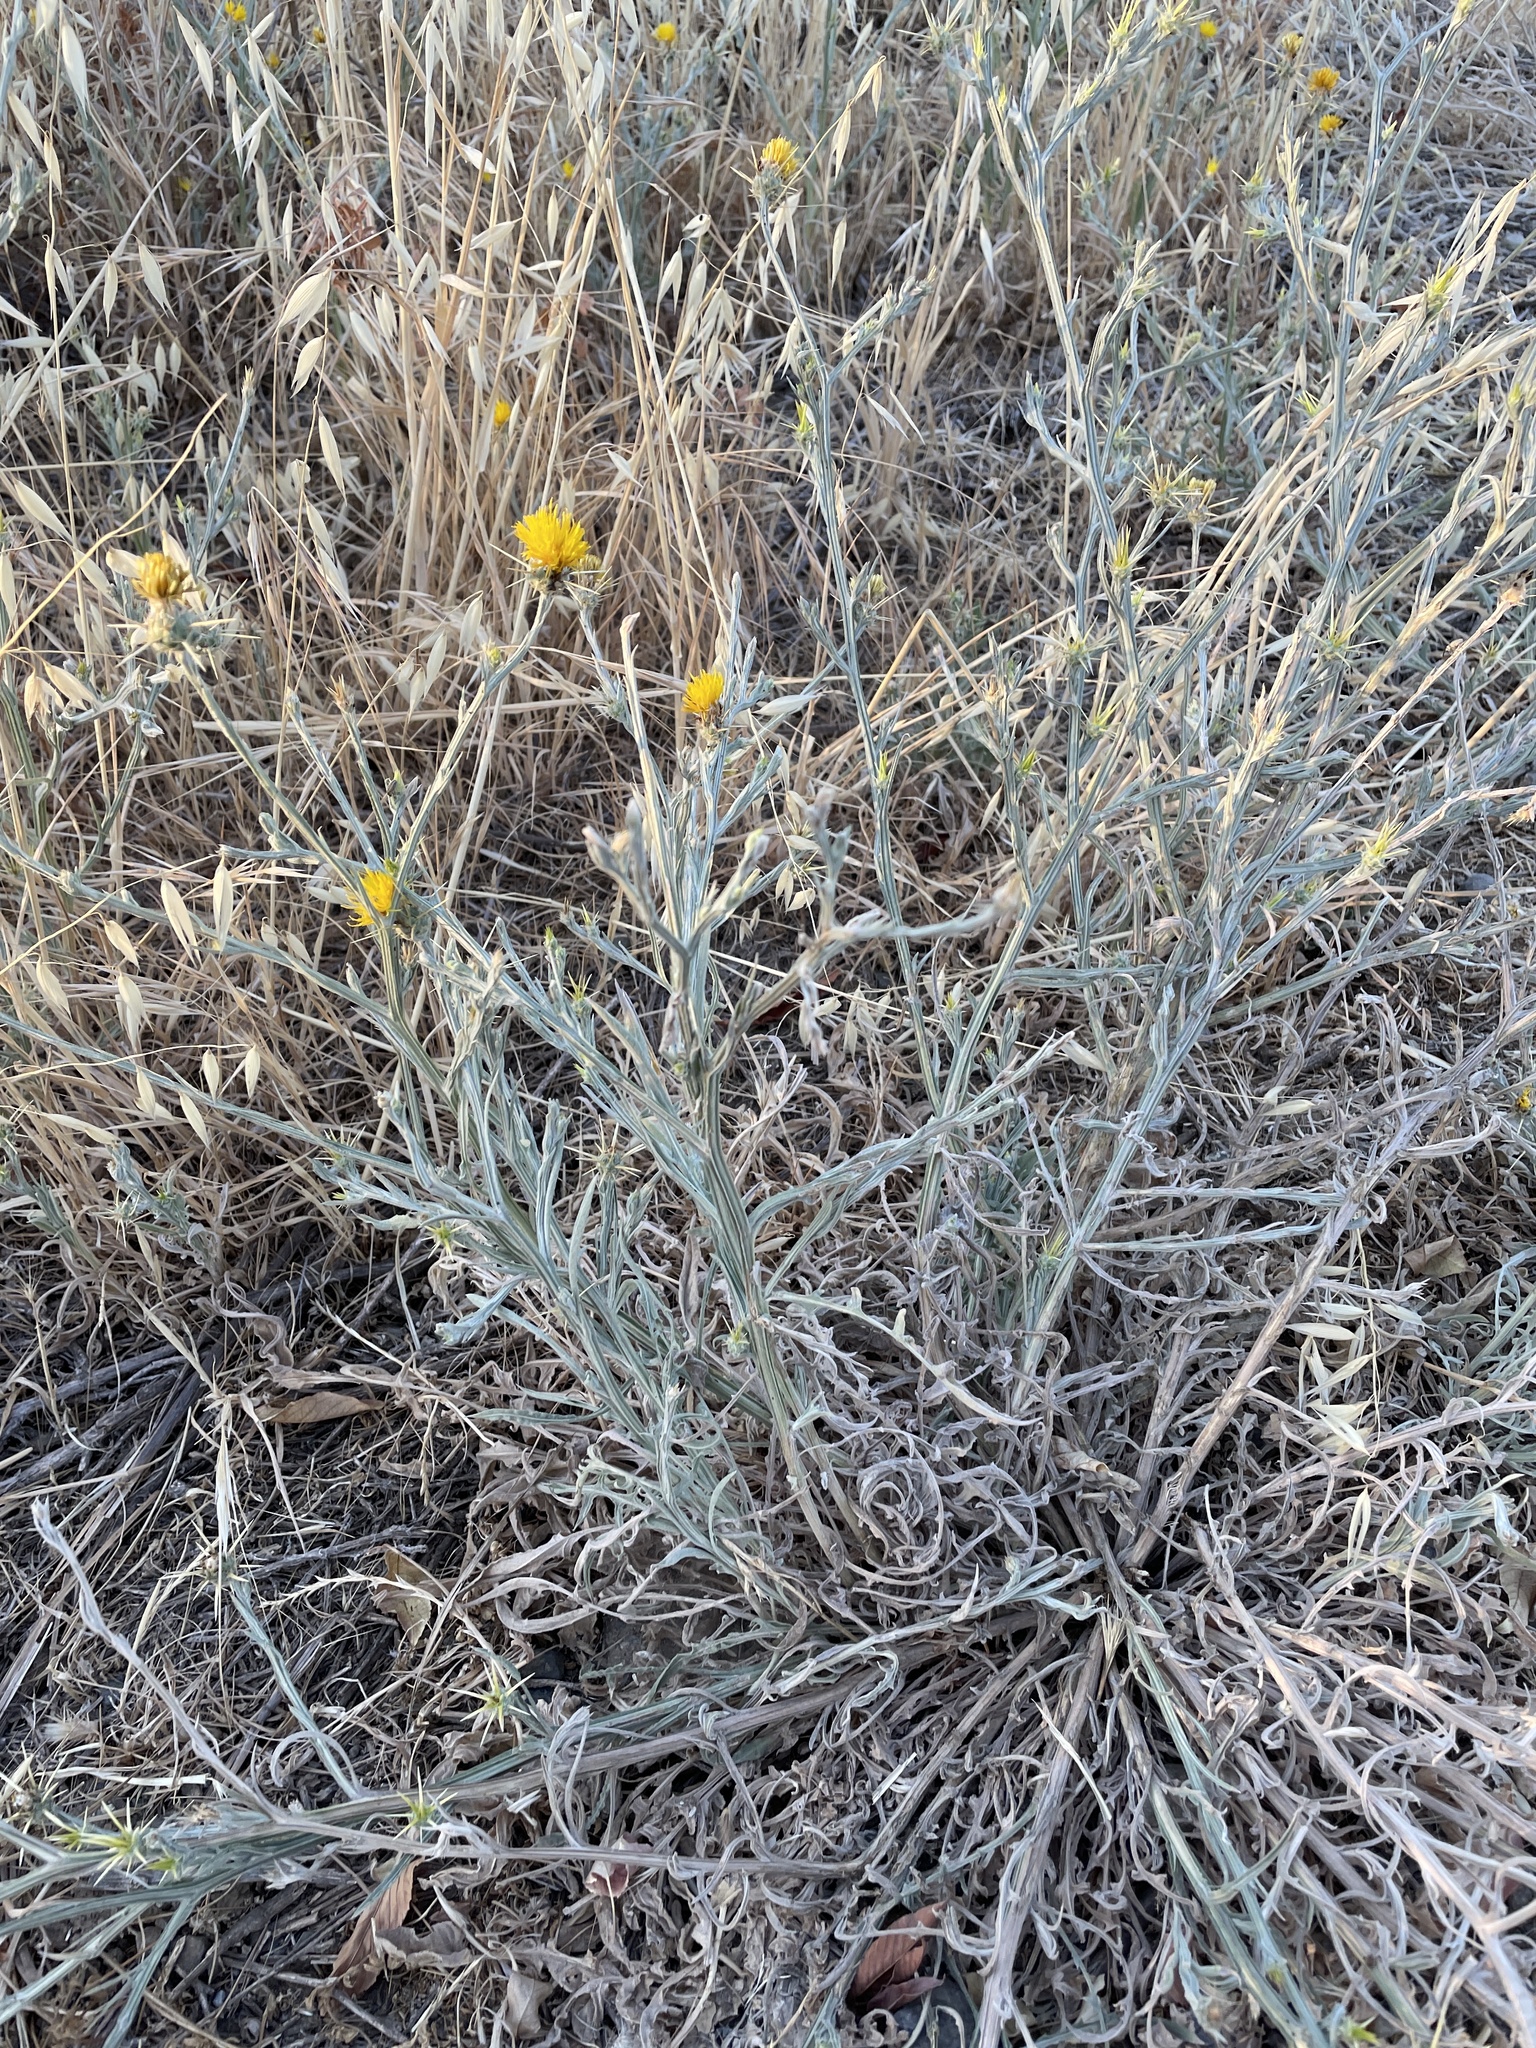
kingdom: Plantae
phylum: Tracheophyta
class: Magnoliopsida
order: Asterales
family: Asteraceae
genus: Centaurea
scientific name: Centaurea solstitialis
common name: Yellow star-thistle
